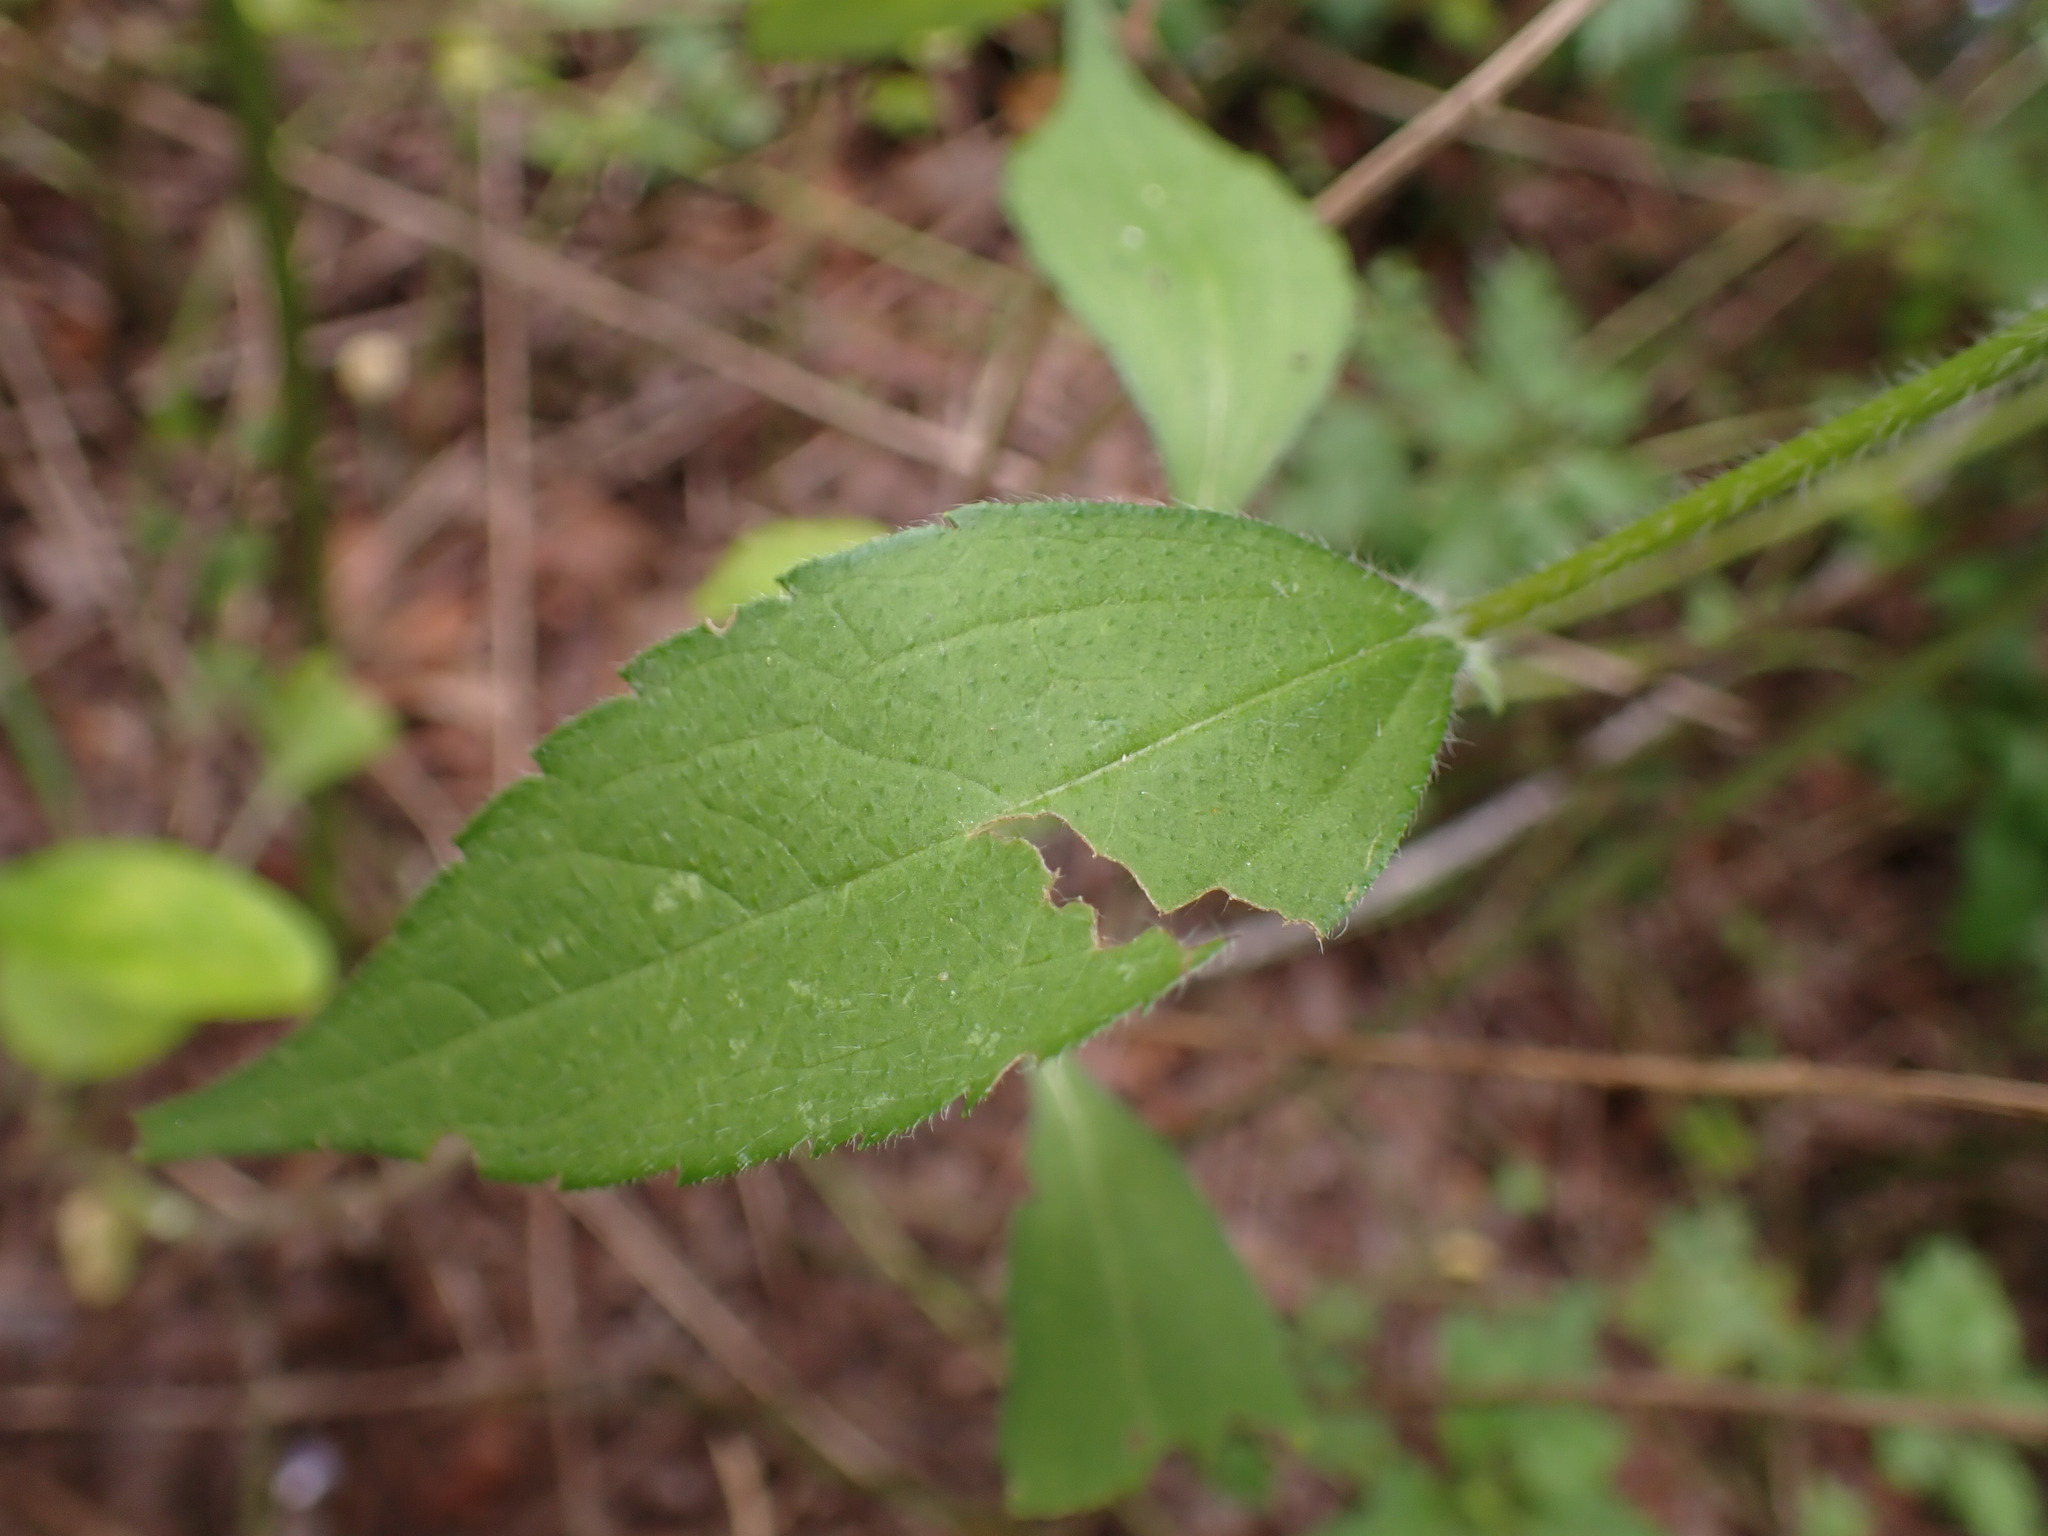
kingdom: Plantae
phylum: Tracheophyta
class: Magnoliopsida
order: Asterales
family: Asteraceae
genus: Rudbeckia
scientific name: Rudbeckia triloba
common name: Thin-leaved coneflower
